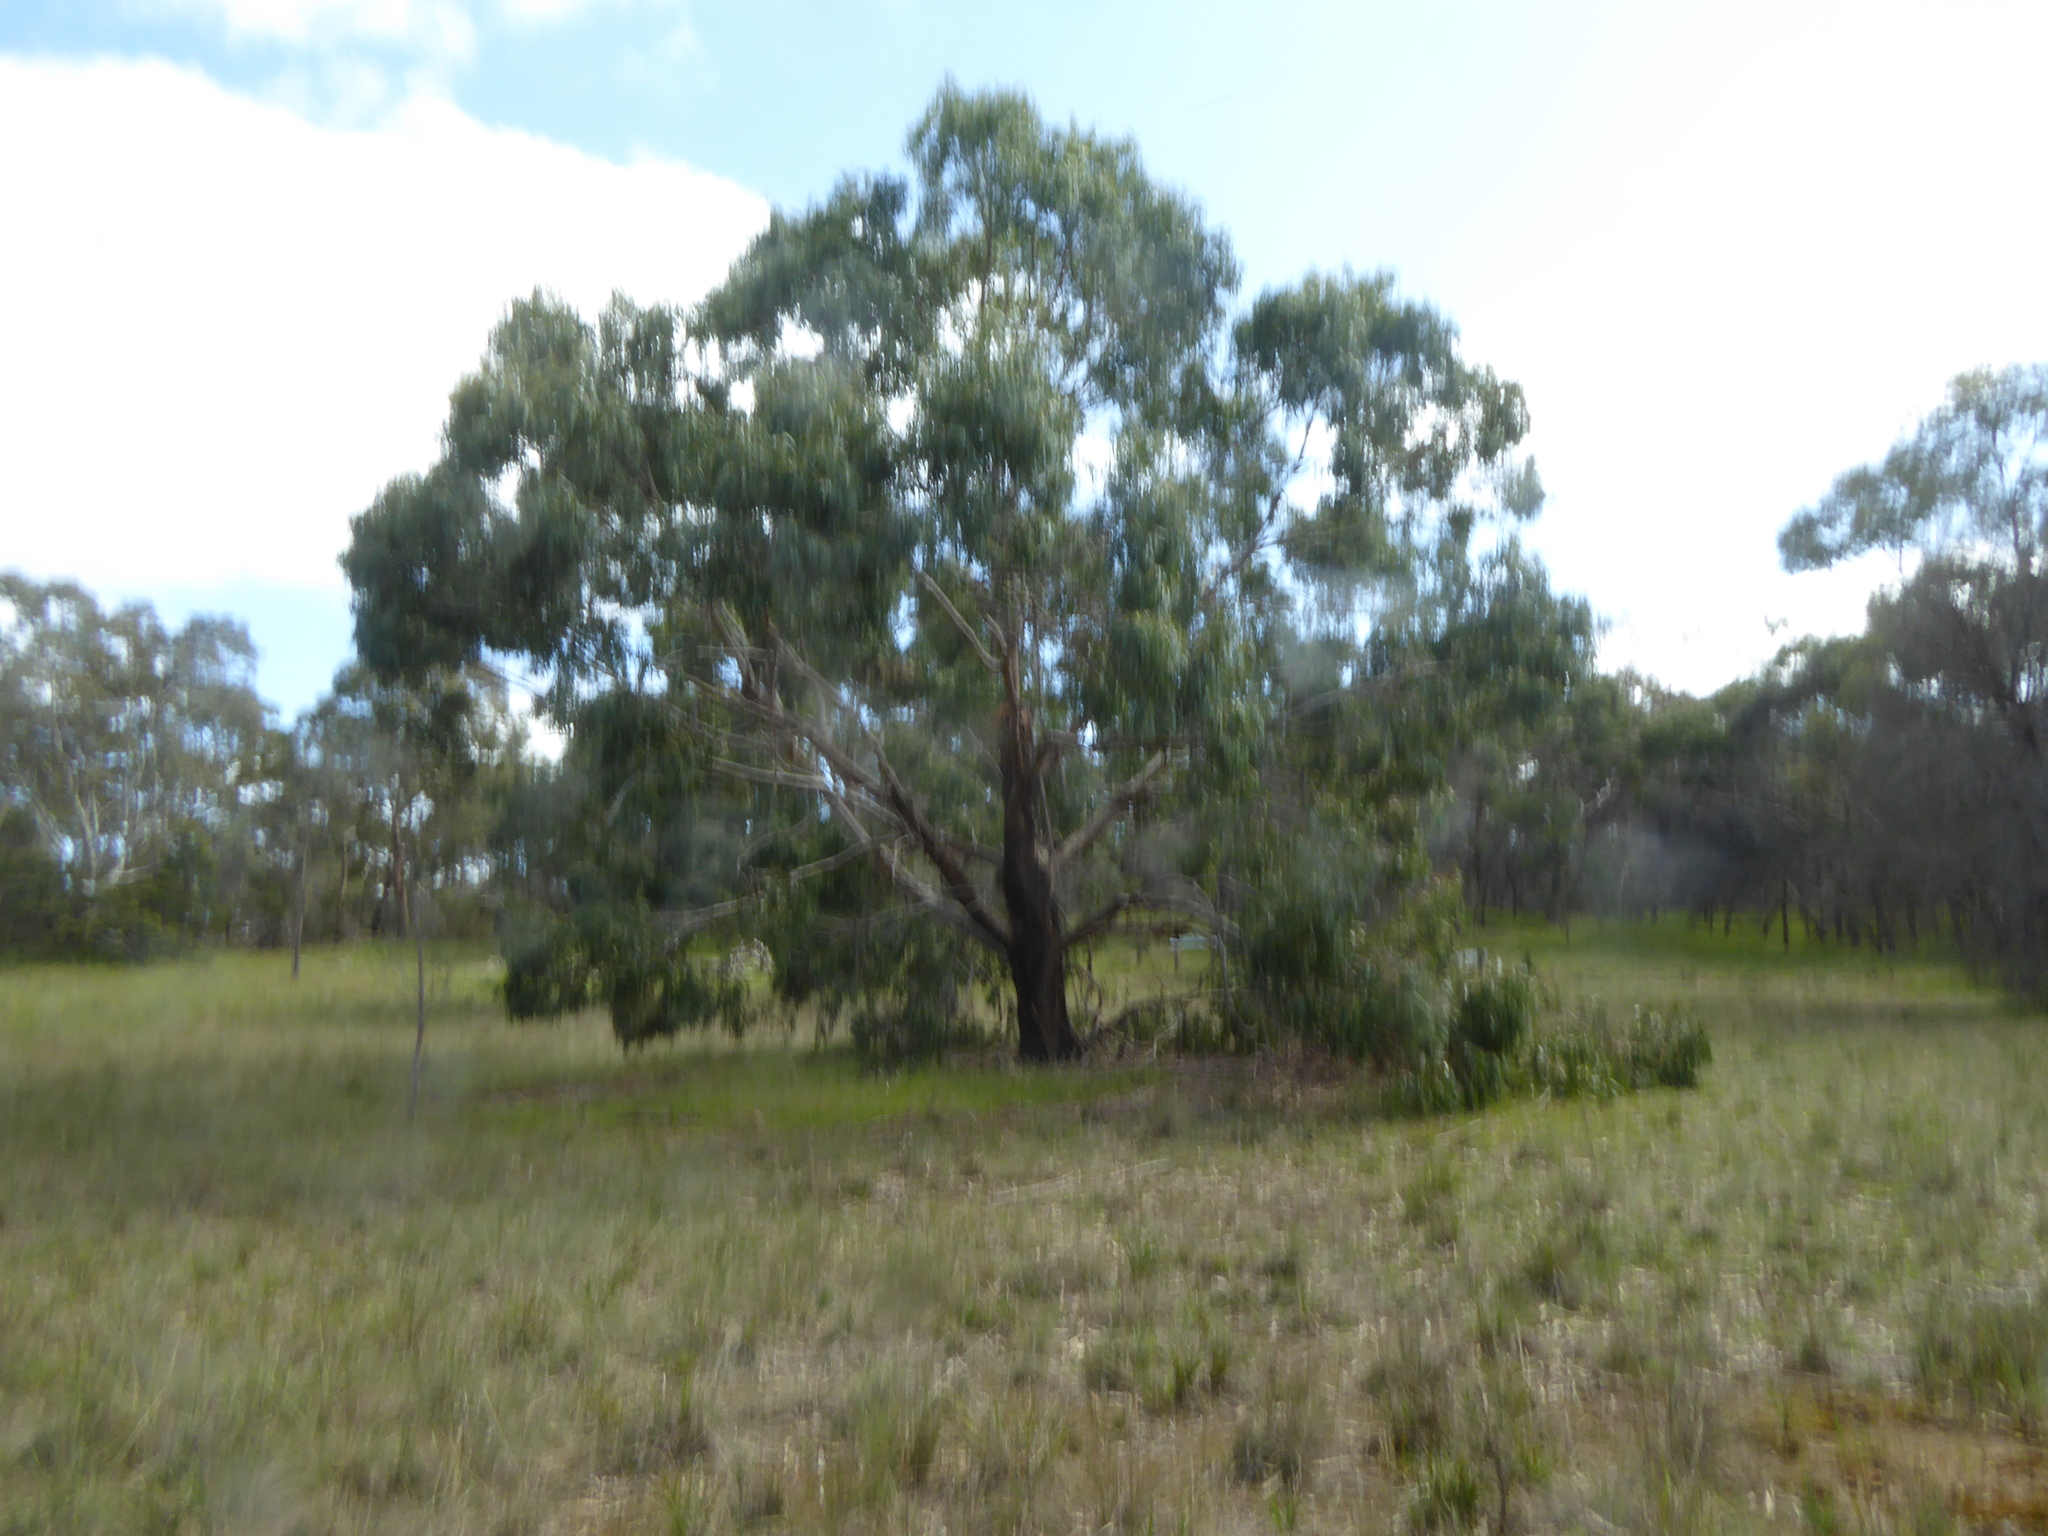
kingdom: Plantae
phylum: Tracheophyta
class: Magnoliopsida
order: Myrtales
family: Myrtaceae
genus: Eucalyptus
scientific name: Eucalyptus viminalis
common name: Manna gum
